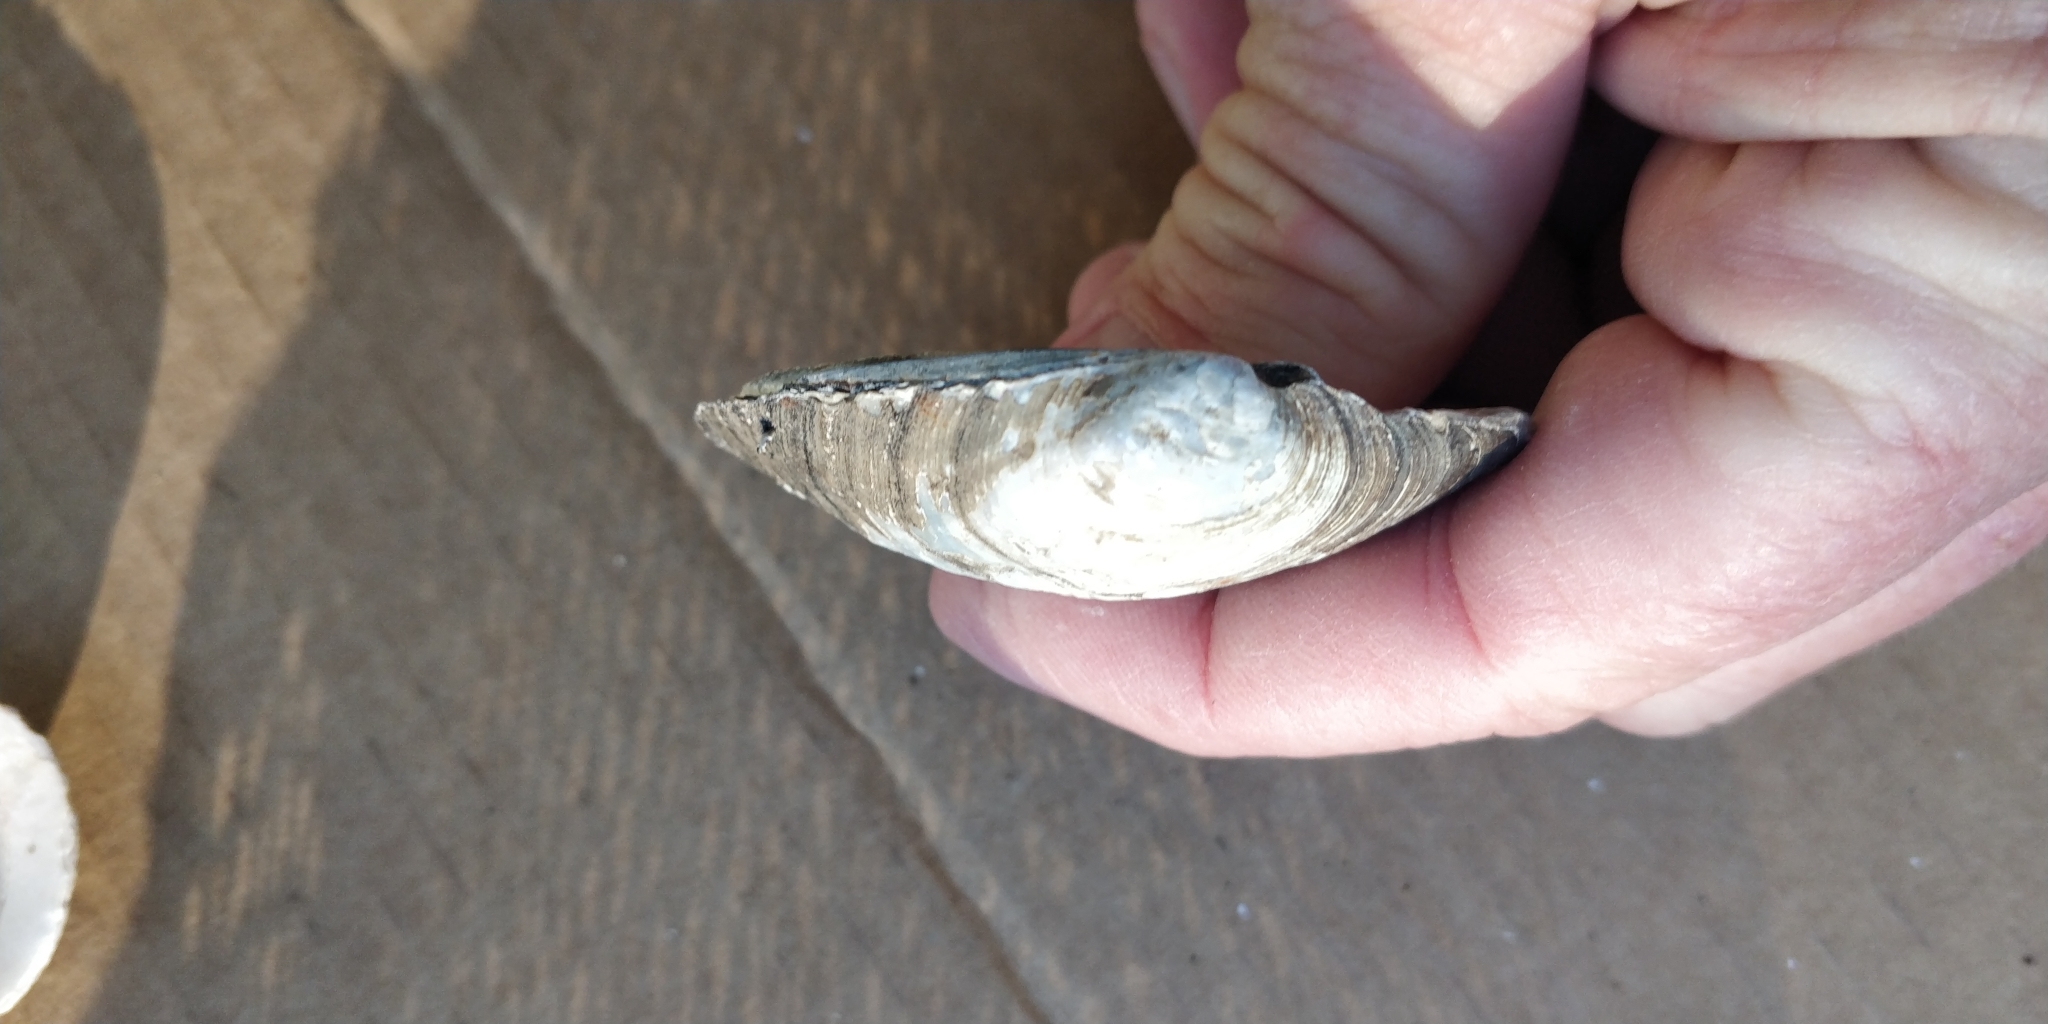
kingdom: Animalia
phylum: Mollusca
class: Bivalvia
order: Unionida
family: Unionidae
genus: Amblema
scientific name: Amblema plicata
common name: Threeridge
